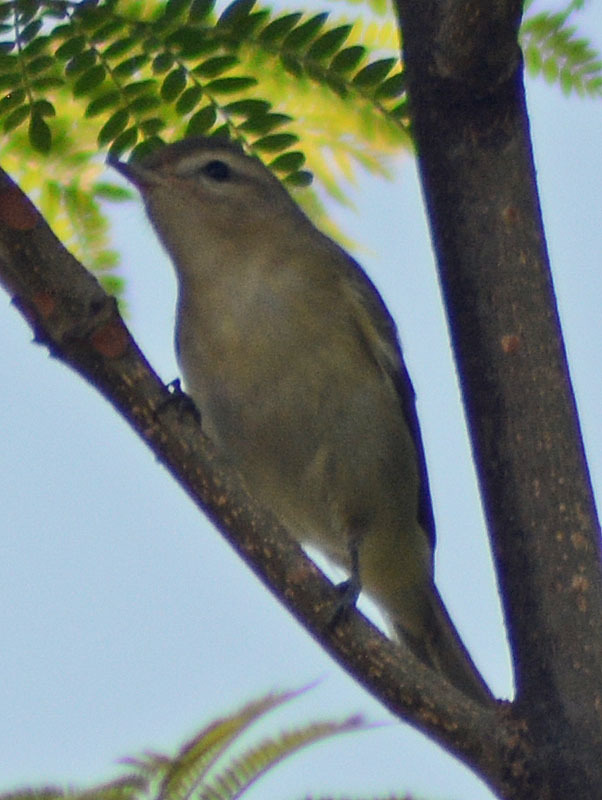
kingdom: Animalia
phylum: Chordata
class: Aves
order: Passeriformes
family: Vireonidae
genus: Vireo
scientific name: Vireo gilvus
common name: Warbling vireo
